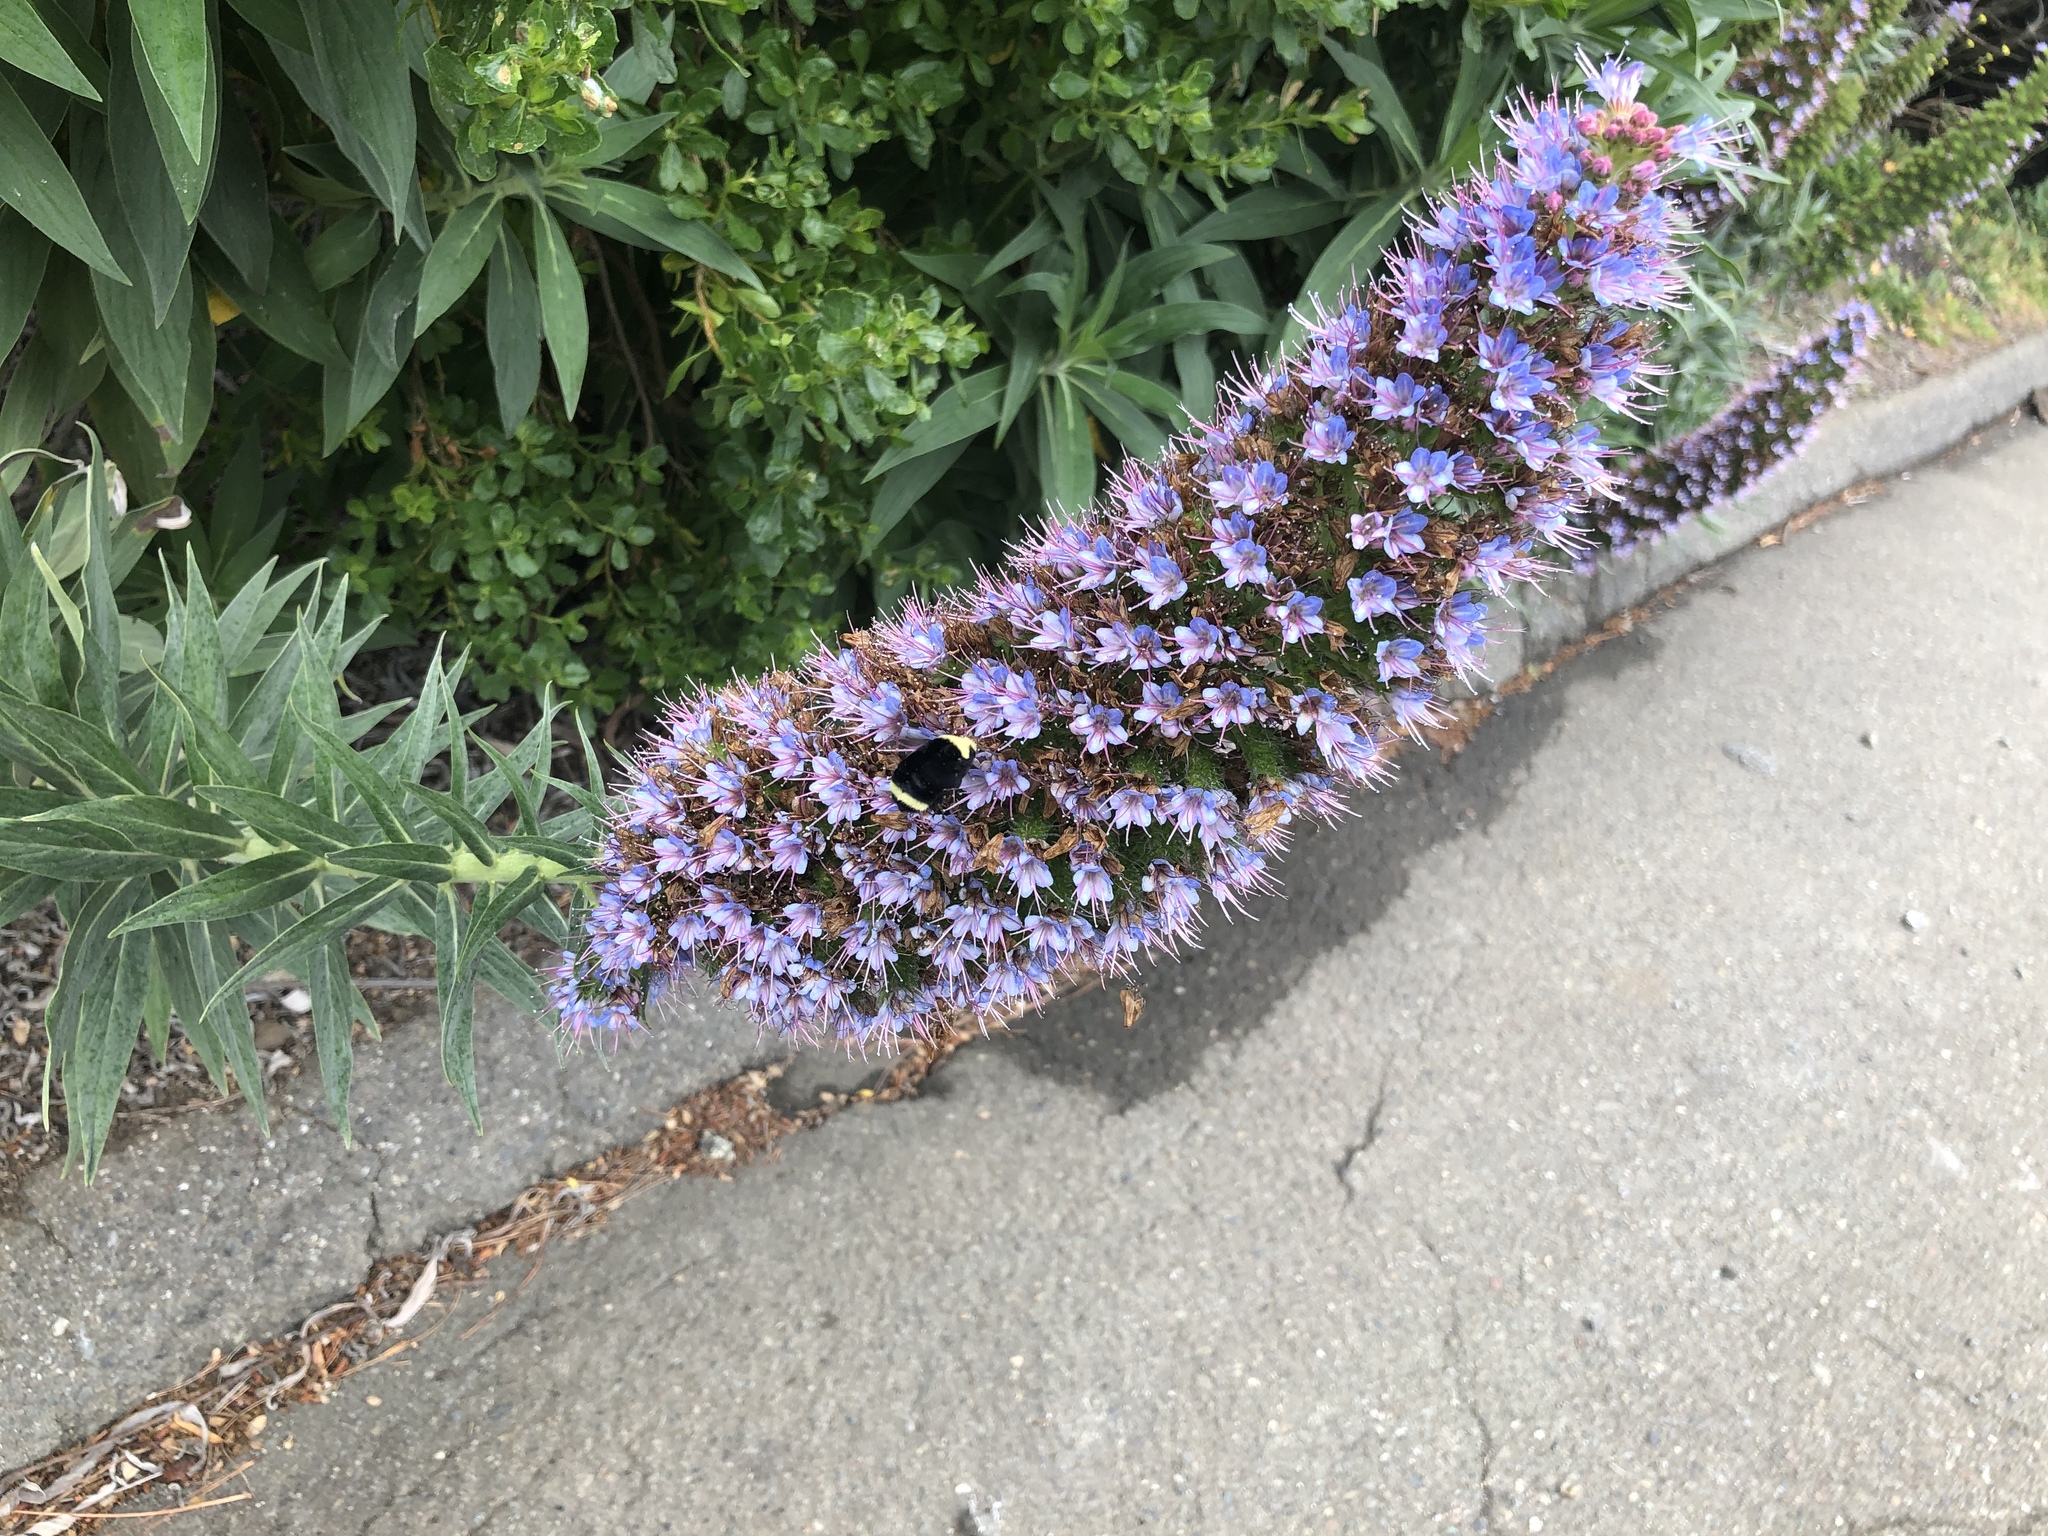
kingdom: Plantae
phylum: Tracheophyta
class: Magnoliopsida
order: Boraginales
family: Boraginaceae
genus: Echium
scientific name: Echium candicans
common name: Pride of madeira
